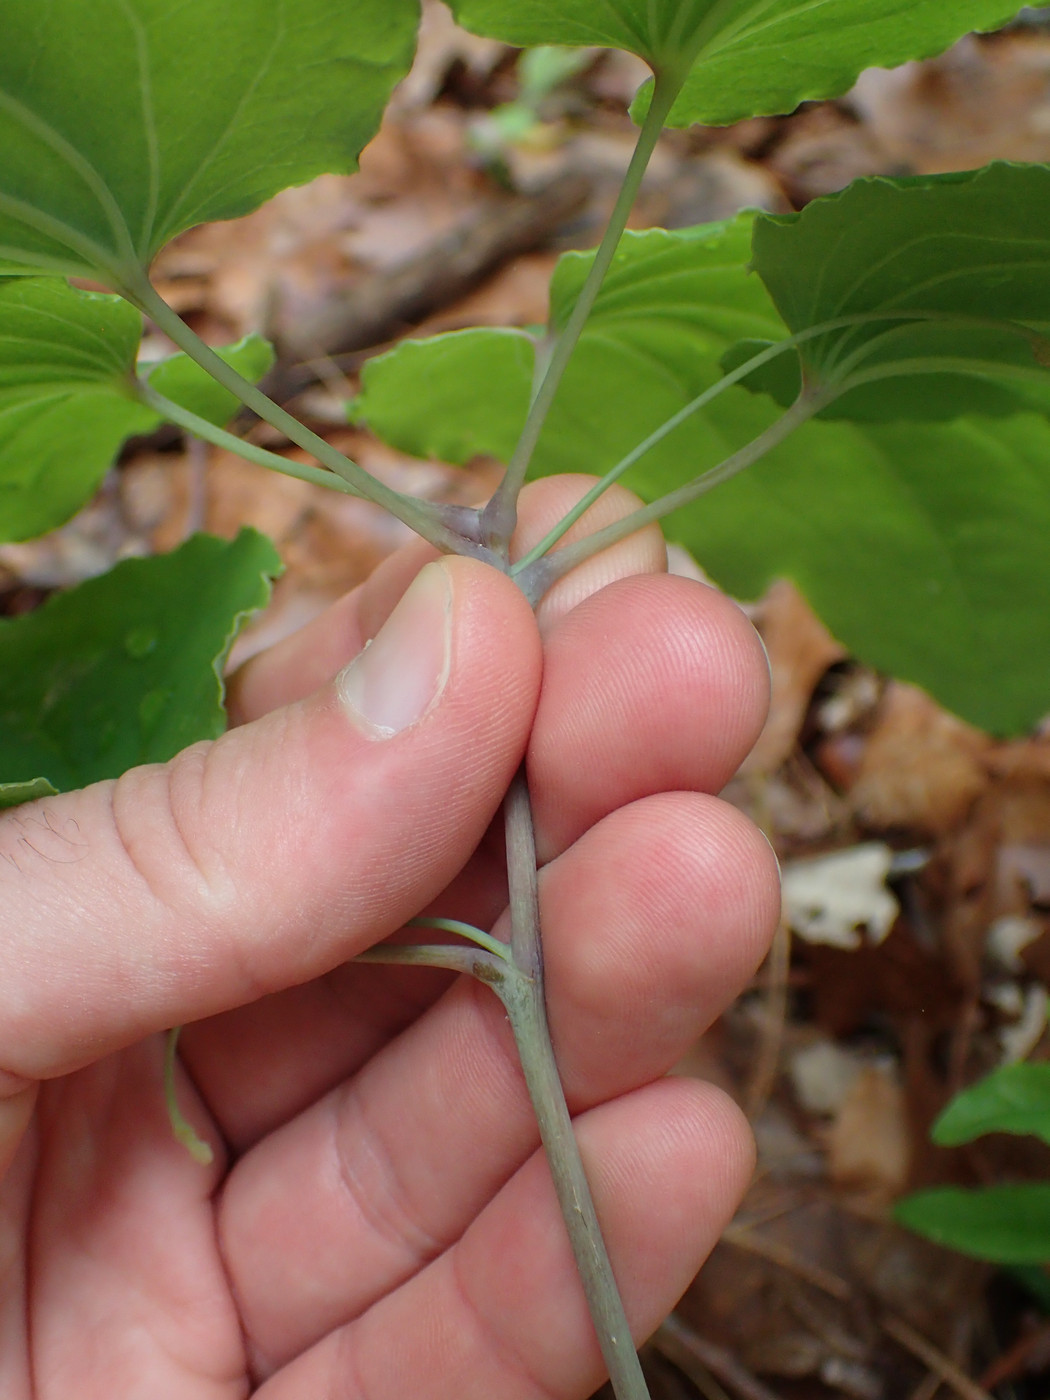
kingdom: Plantae
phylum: Tracheophyta
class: Liliopsida
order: Liliales
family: Smilacaceae
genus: Smilax
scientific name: Smilax biltmoreana
